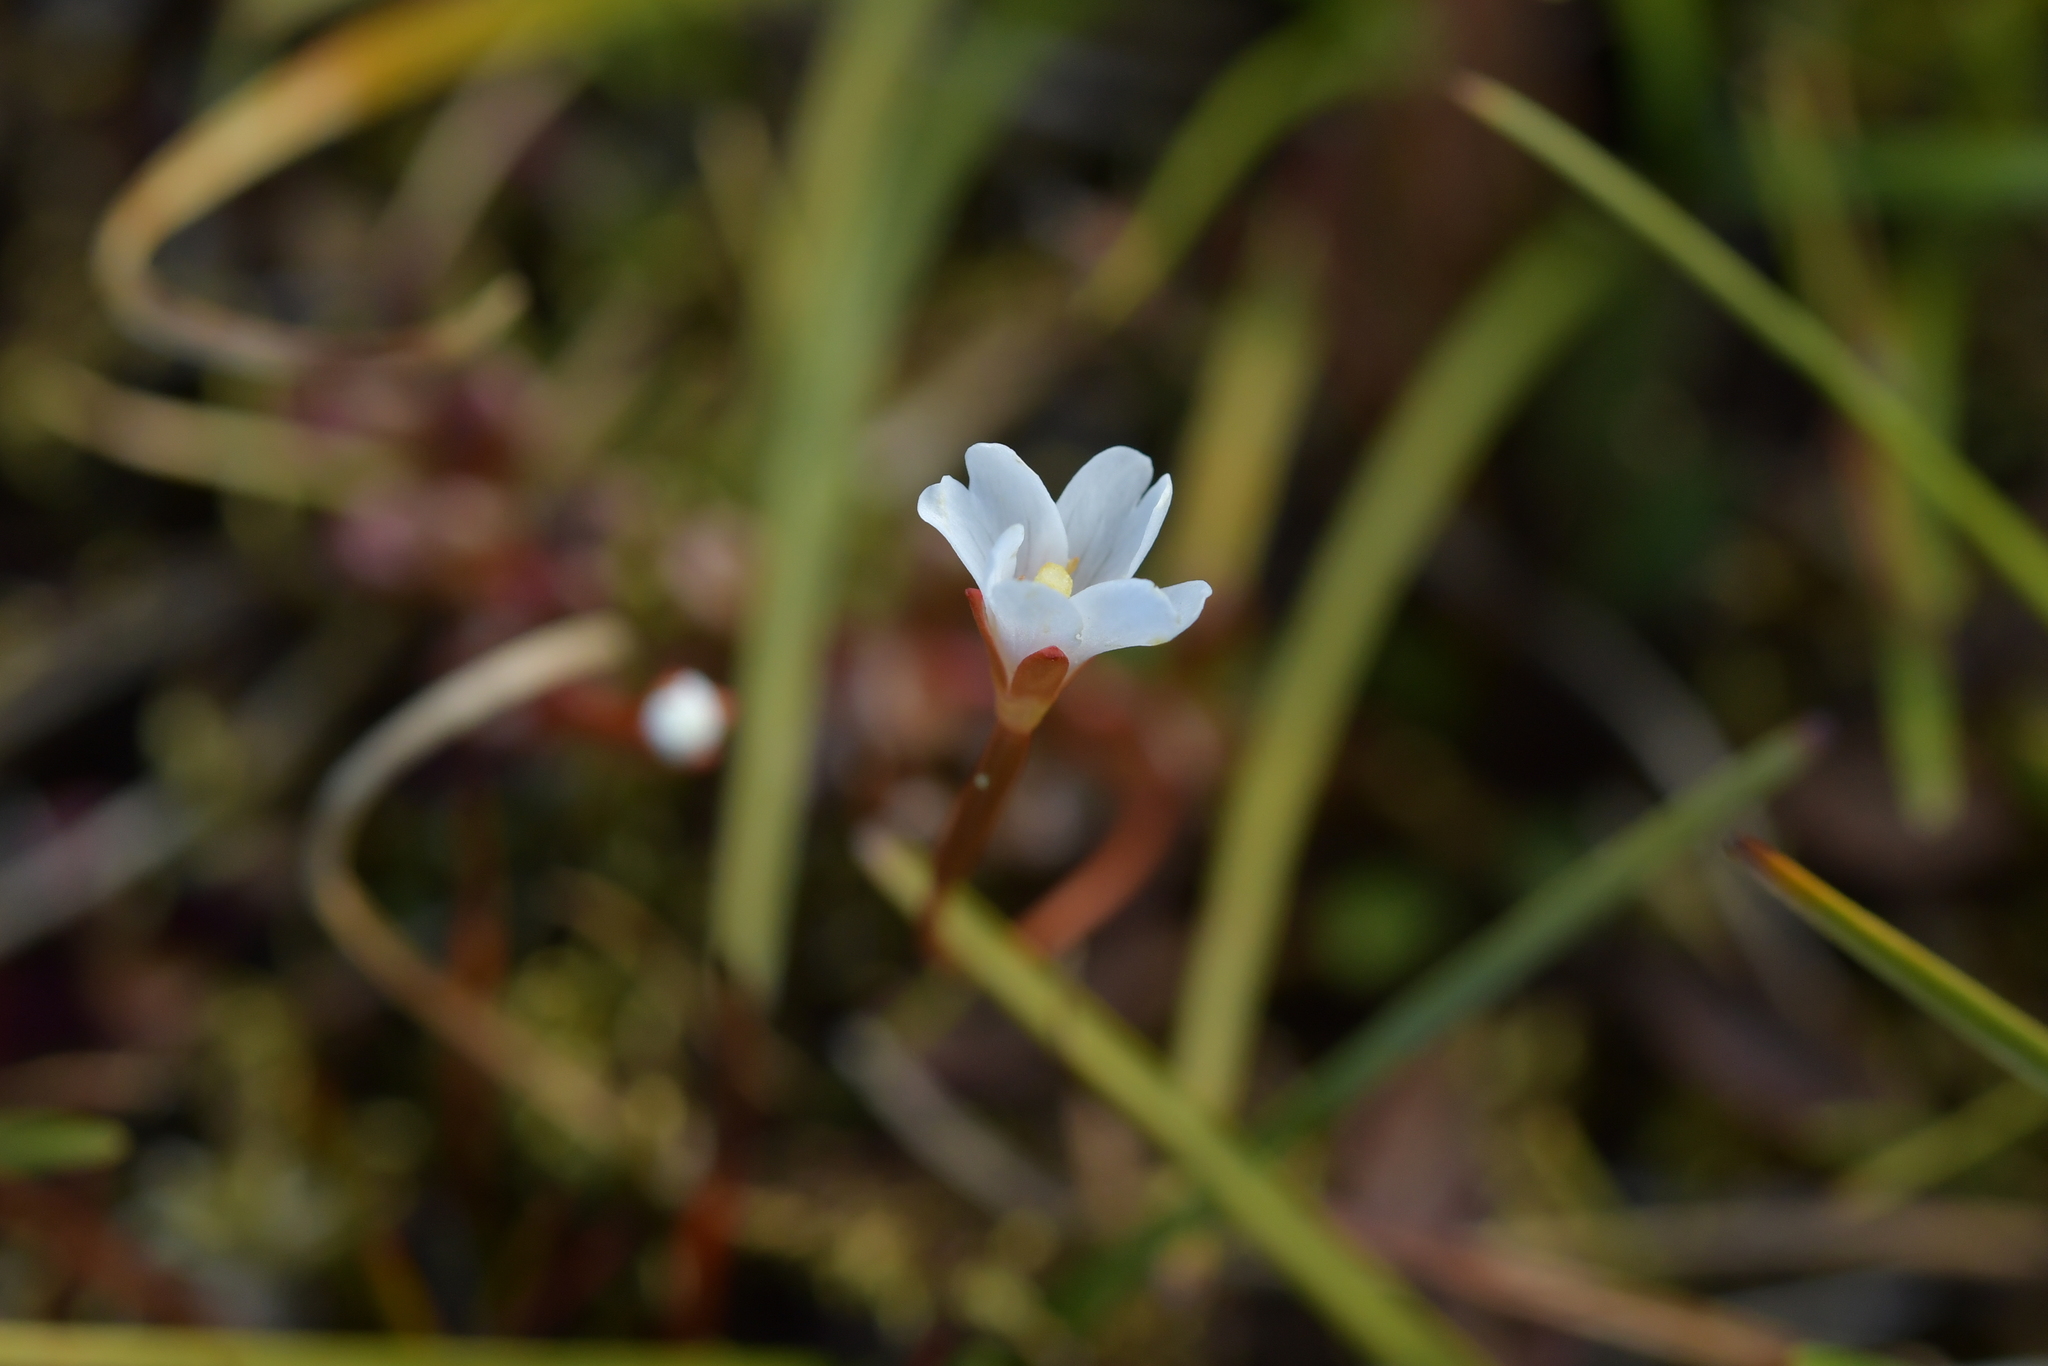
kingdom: Plantae
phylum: Tracheophyta
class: Magnoliopsida
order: Myrtales
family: Onagraceae
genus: Epilobium
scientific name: Epilobium pernitens
